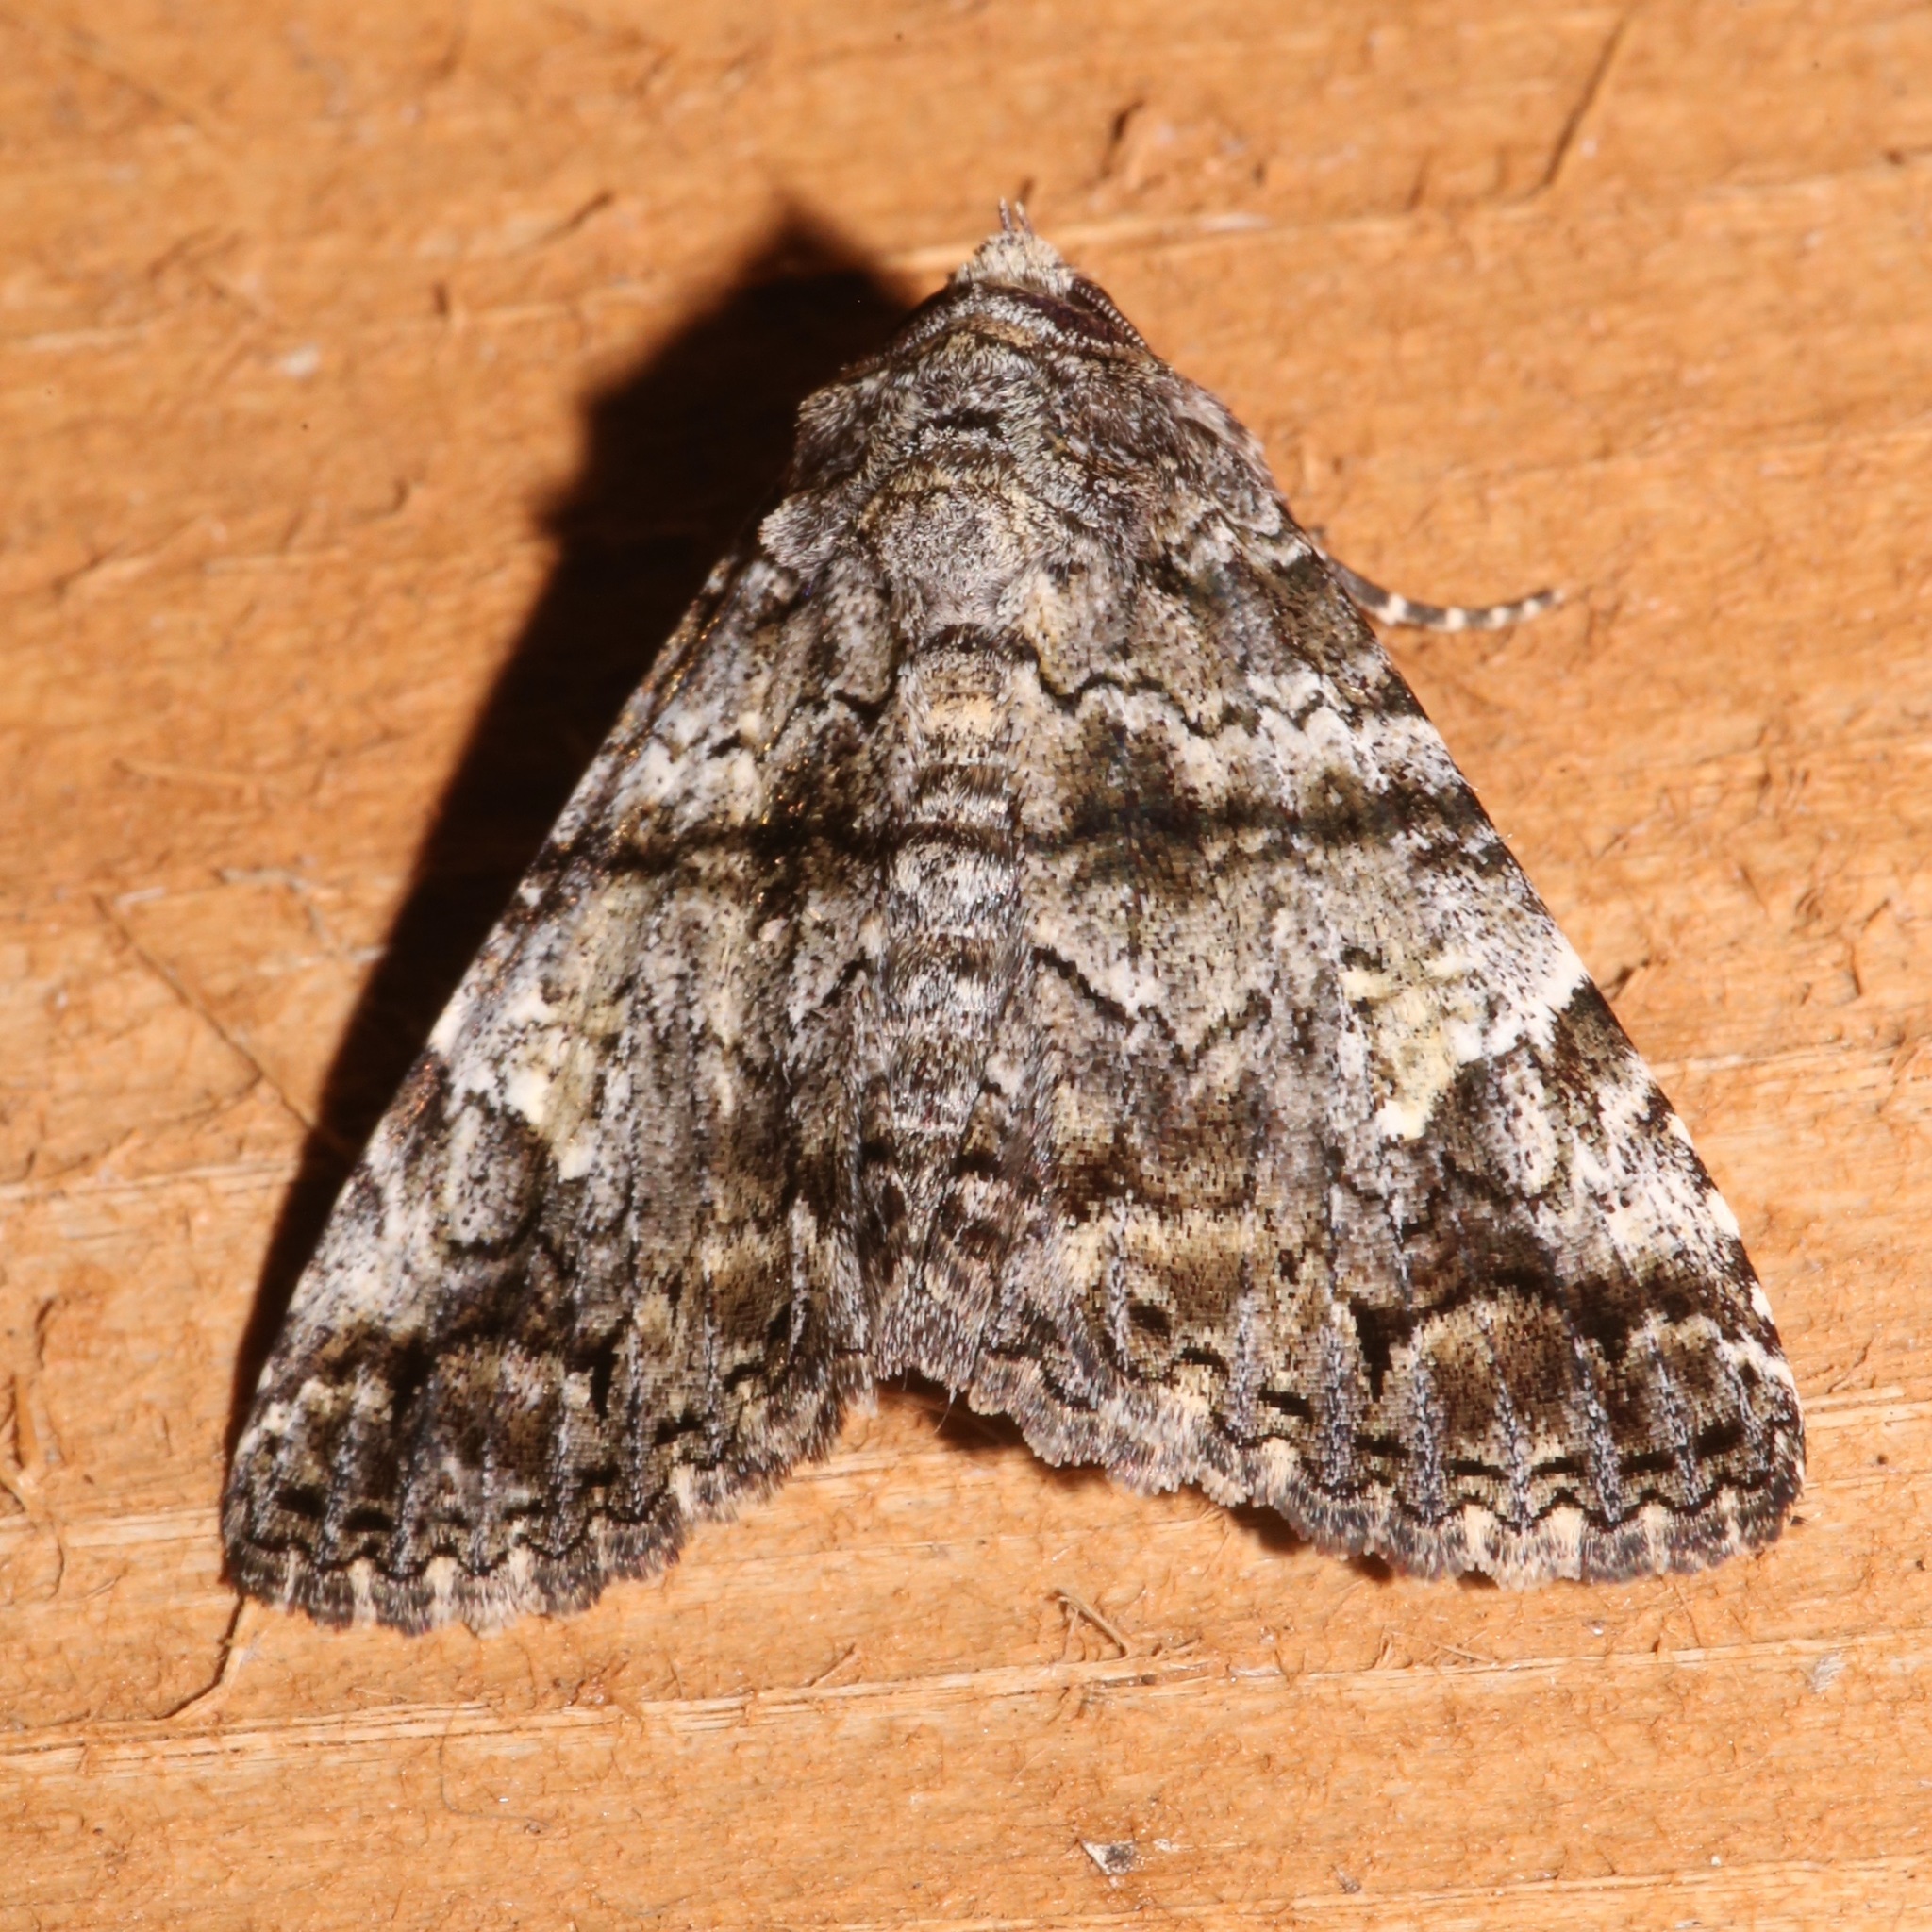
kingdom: Animalia
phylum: Arthropoda
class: Insecta
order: Lepidoptera
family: Erebidae
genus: Metria
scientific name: Metria amella
